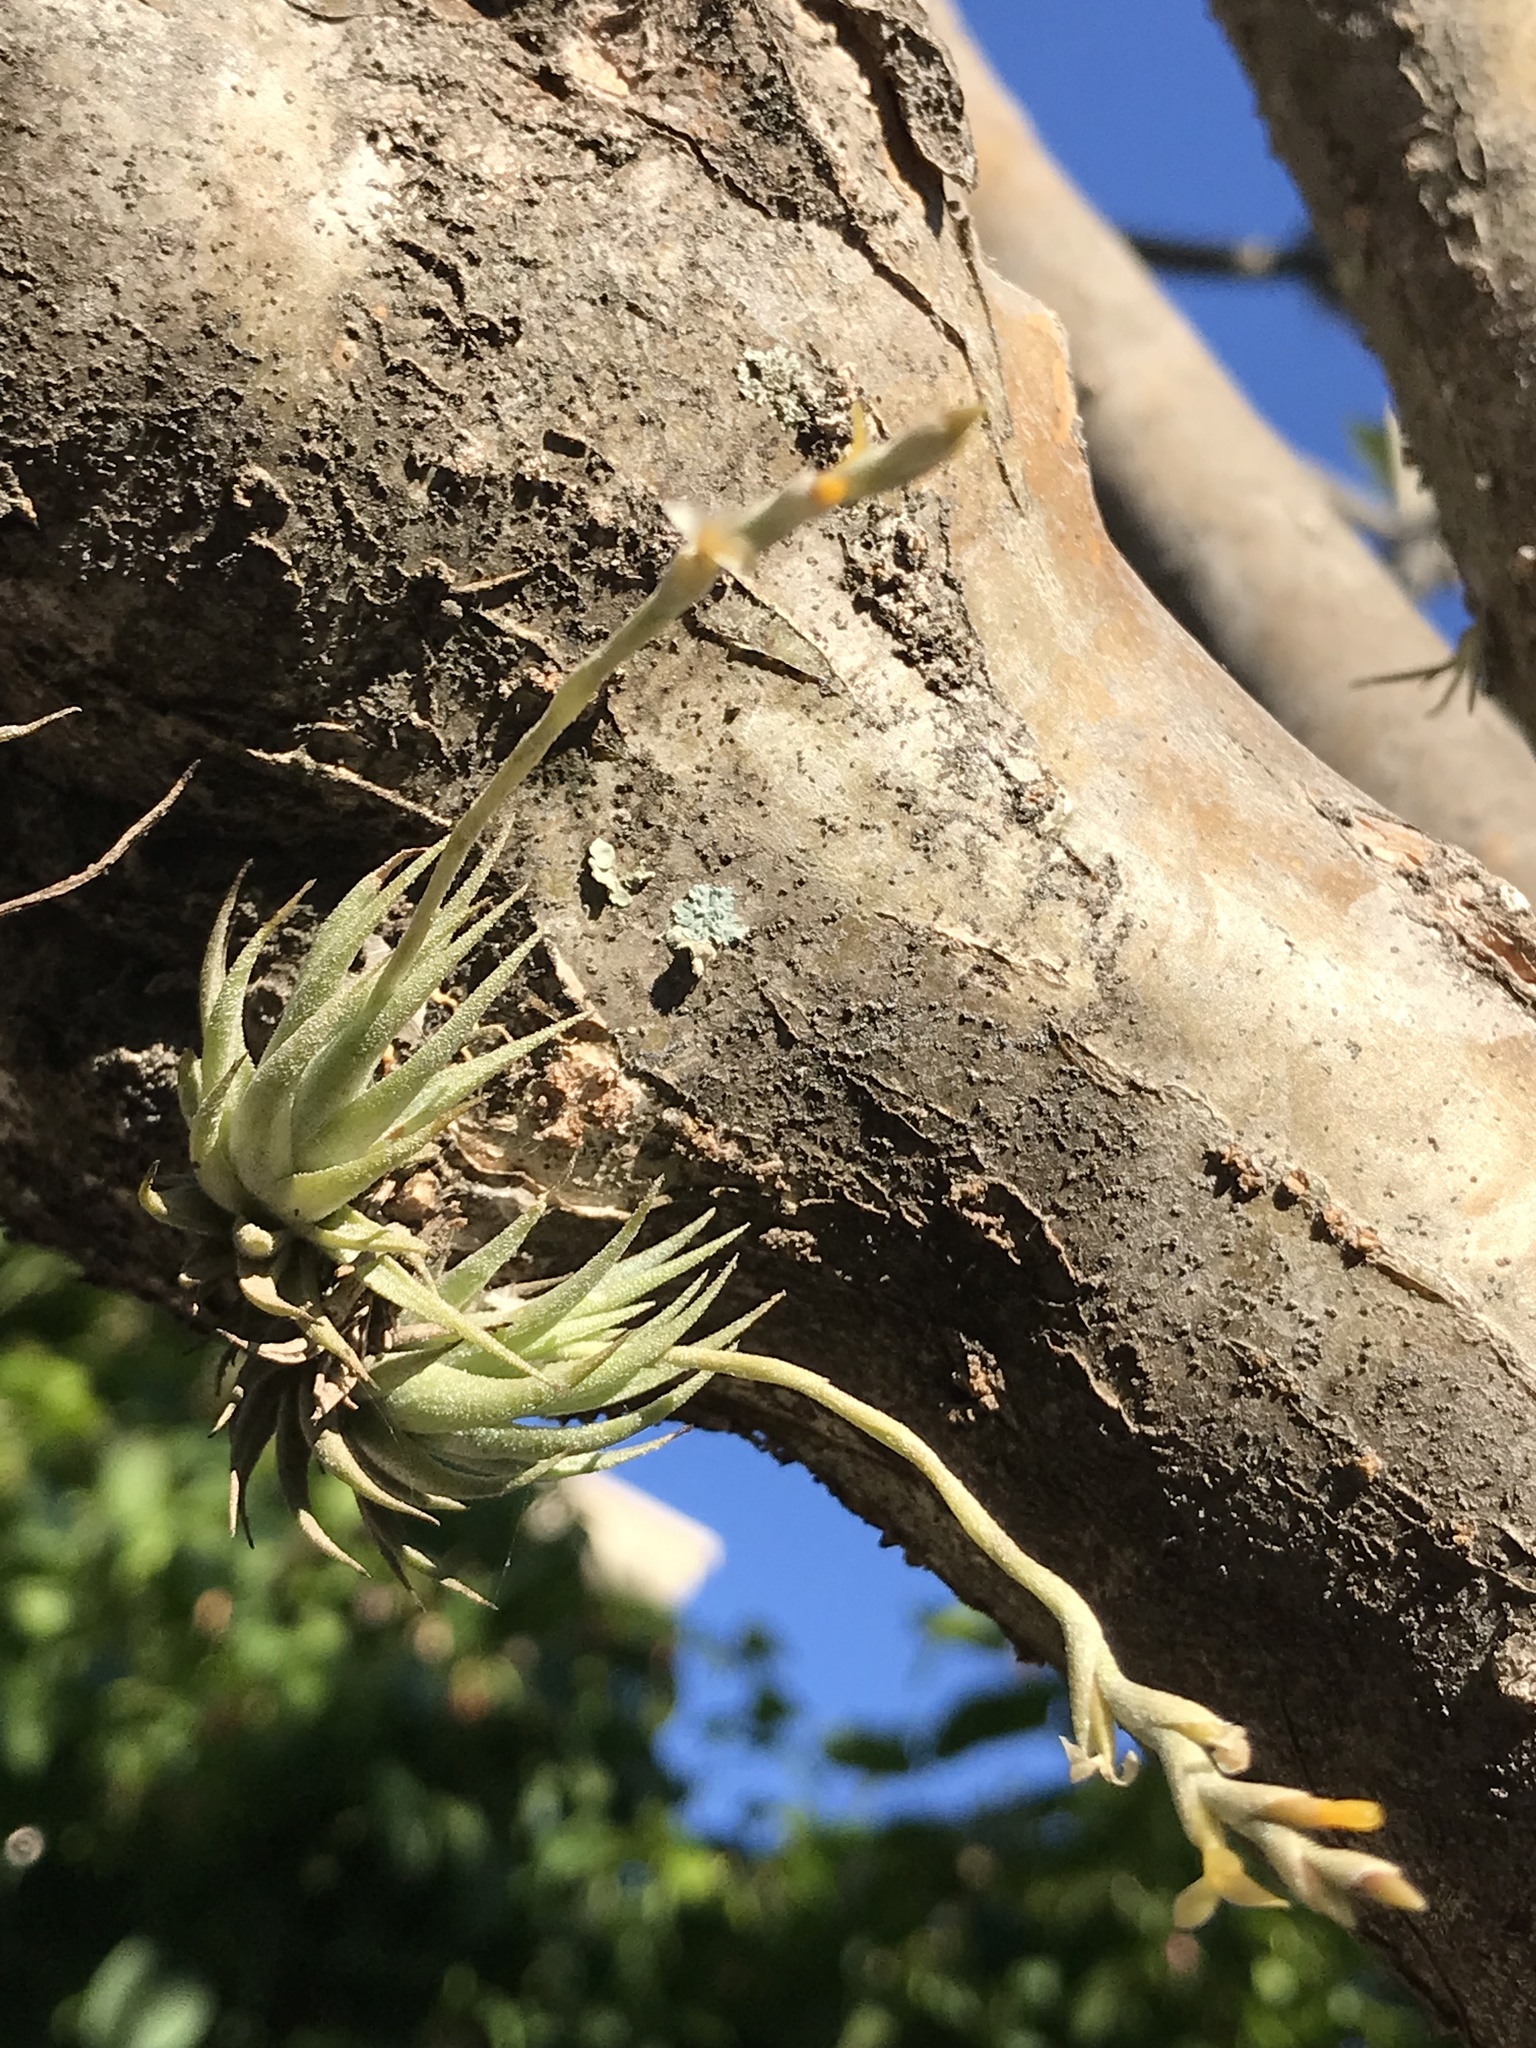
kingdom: Plantae
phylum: Tracheophyta
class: Liliopsida
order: Poales
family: Bromeliaceae
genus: Tillandsia
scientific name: Tillandsia loliacea
